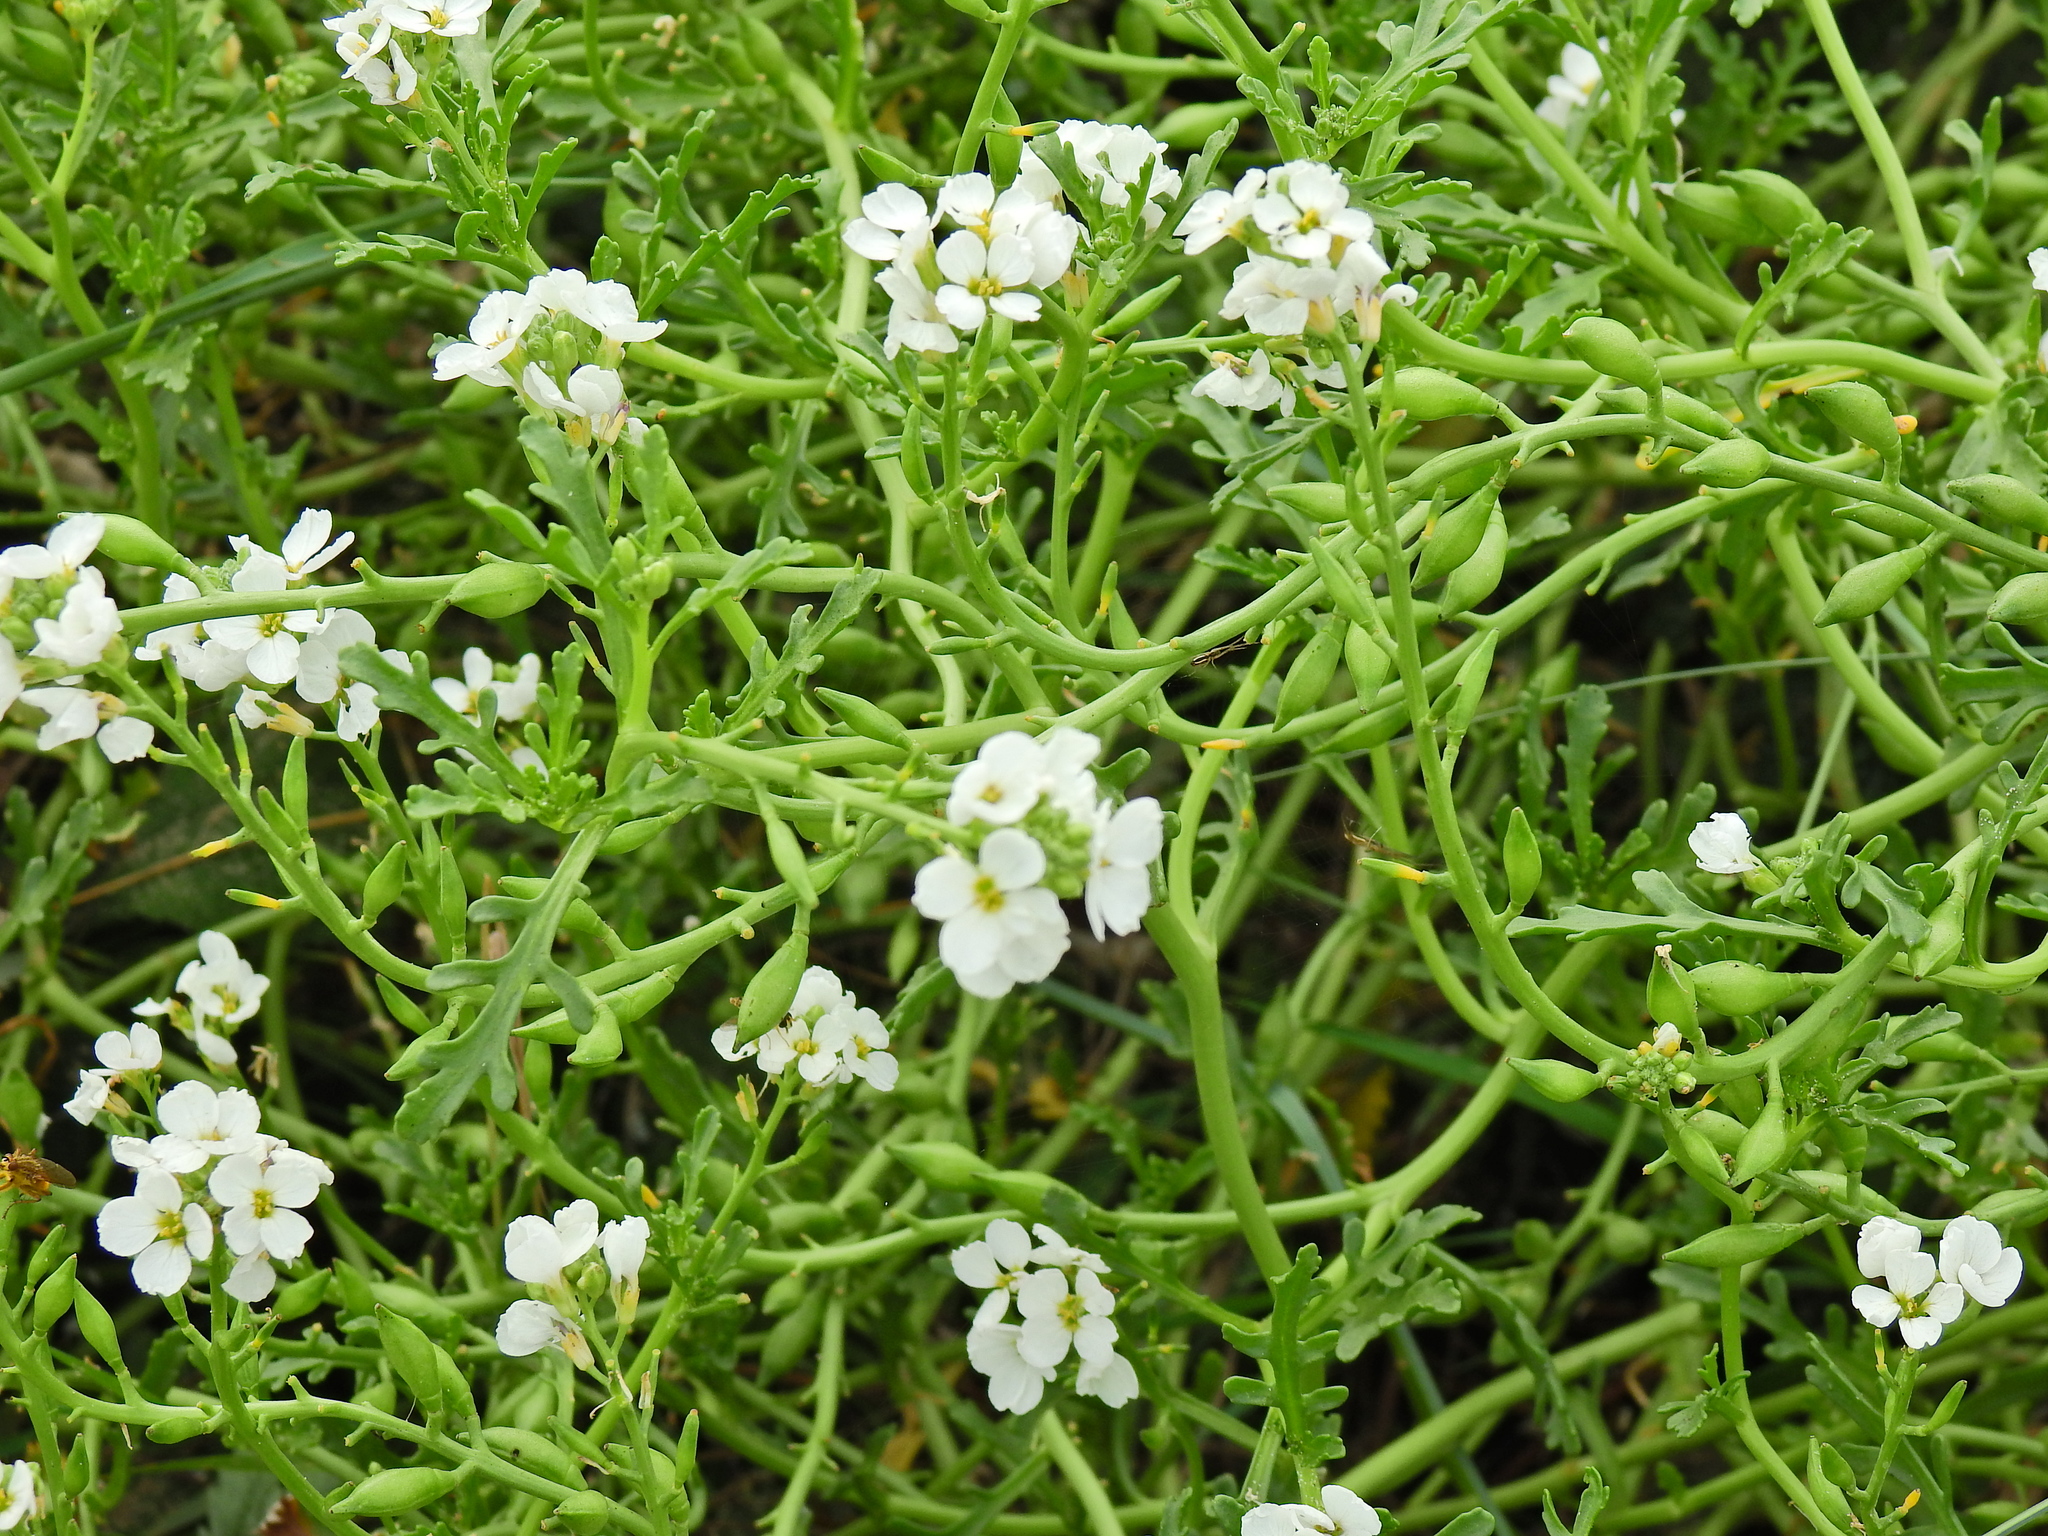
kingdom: Plantae
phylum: Tracheophyta
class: Magnoliopsida
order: Brassicales
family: Brassicaceae
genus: Cakile
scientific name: Cakile maritima
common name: Sea rocket
